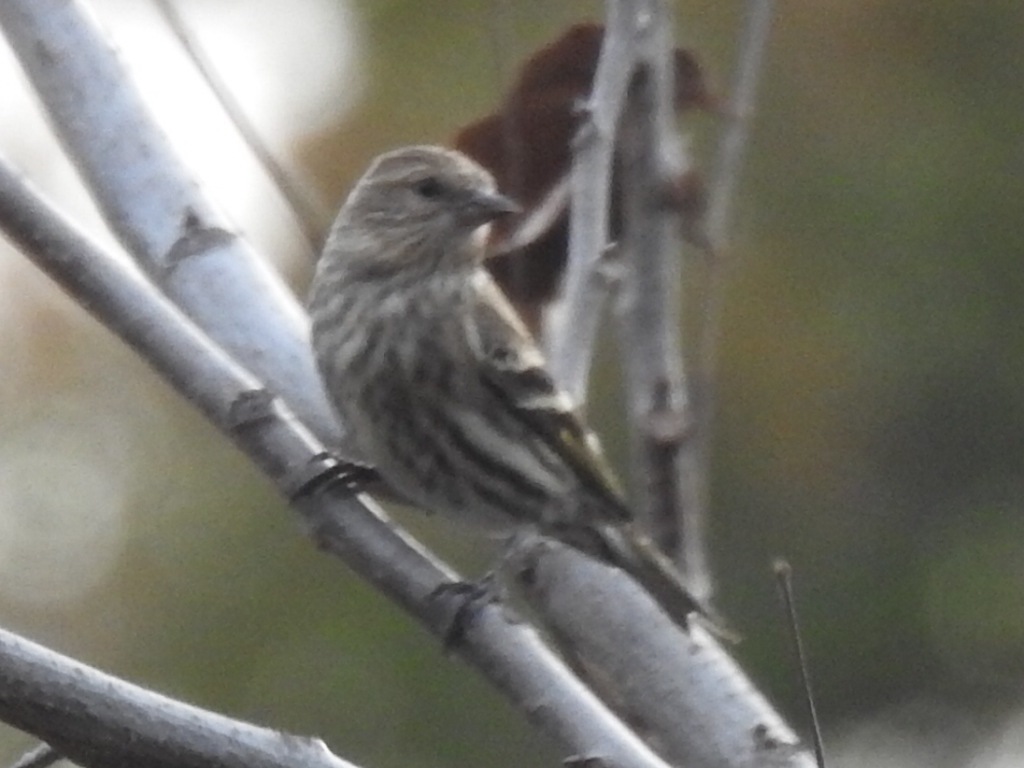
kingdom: Animalia
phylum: Chordata
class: Aves
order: Passeriformes
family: Fringillidae
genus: Spinus
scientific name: Spinus pinus
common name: Pine siskin
